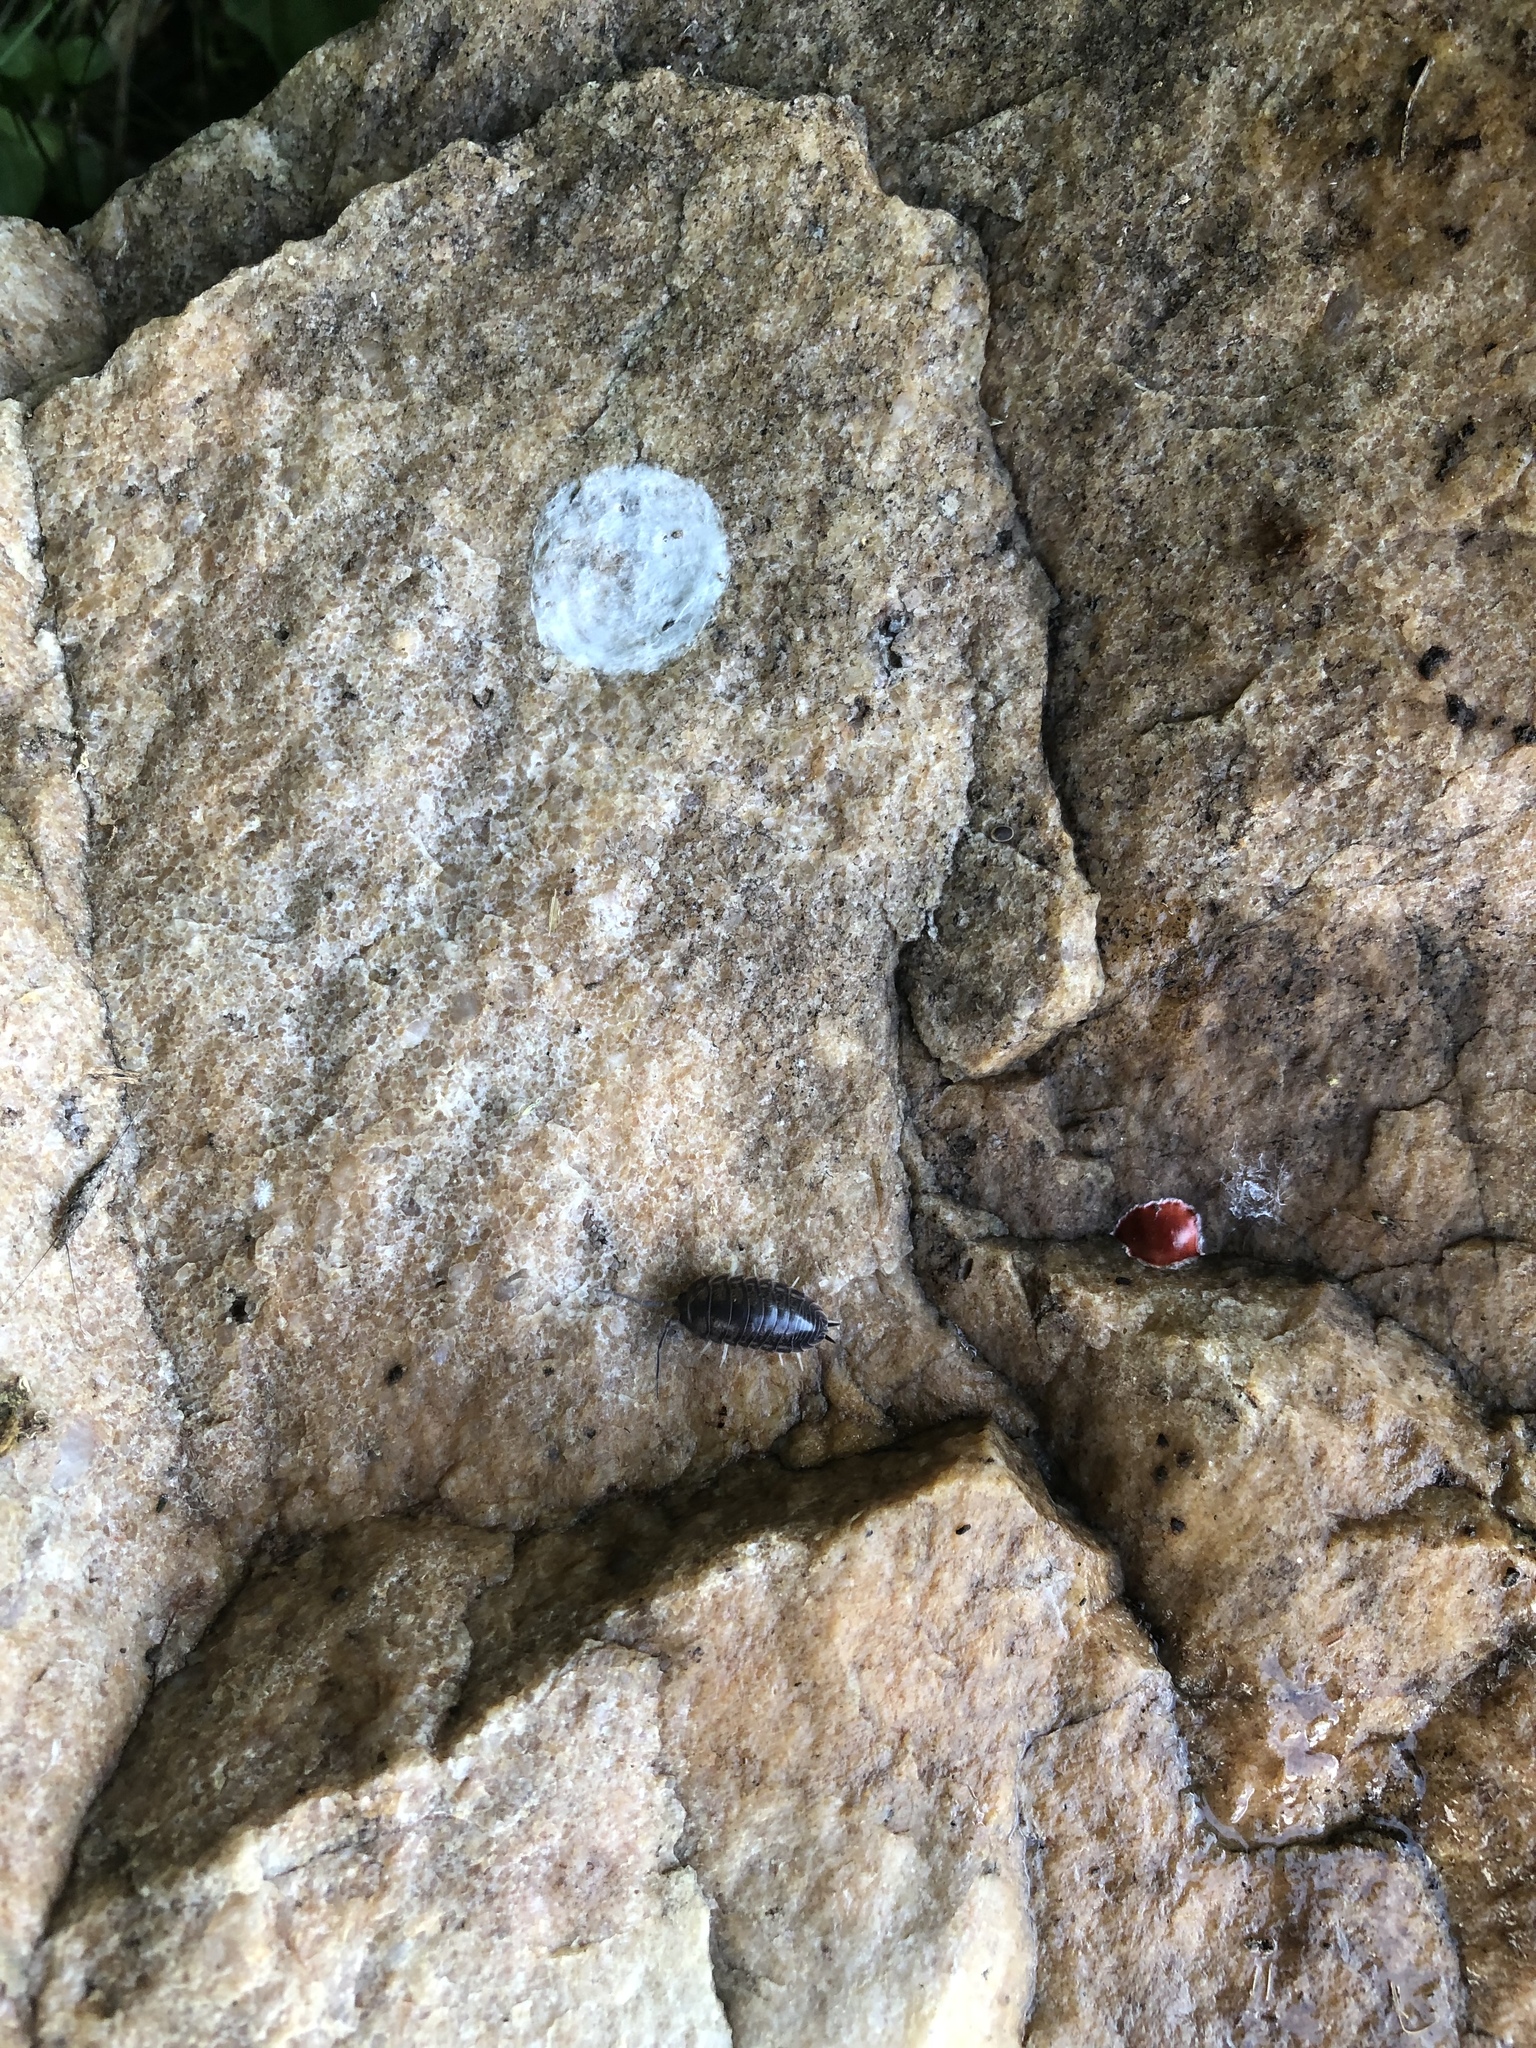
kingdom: Animalia
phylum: Arthropoda
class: Malacostraca
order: Isopoda
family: Cylisticidae
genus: Cylisticus
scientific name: Cylisticus convexus
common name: Curly woodlouse
